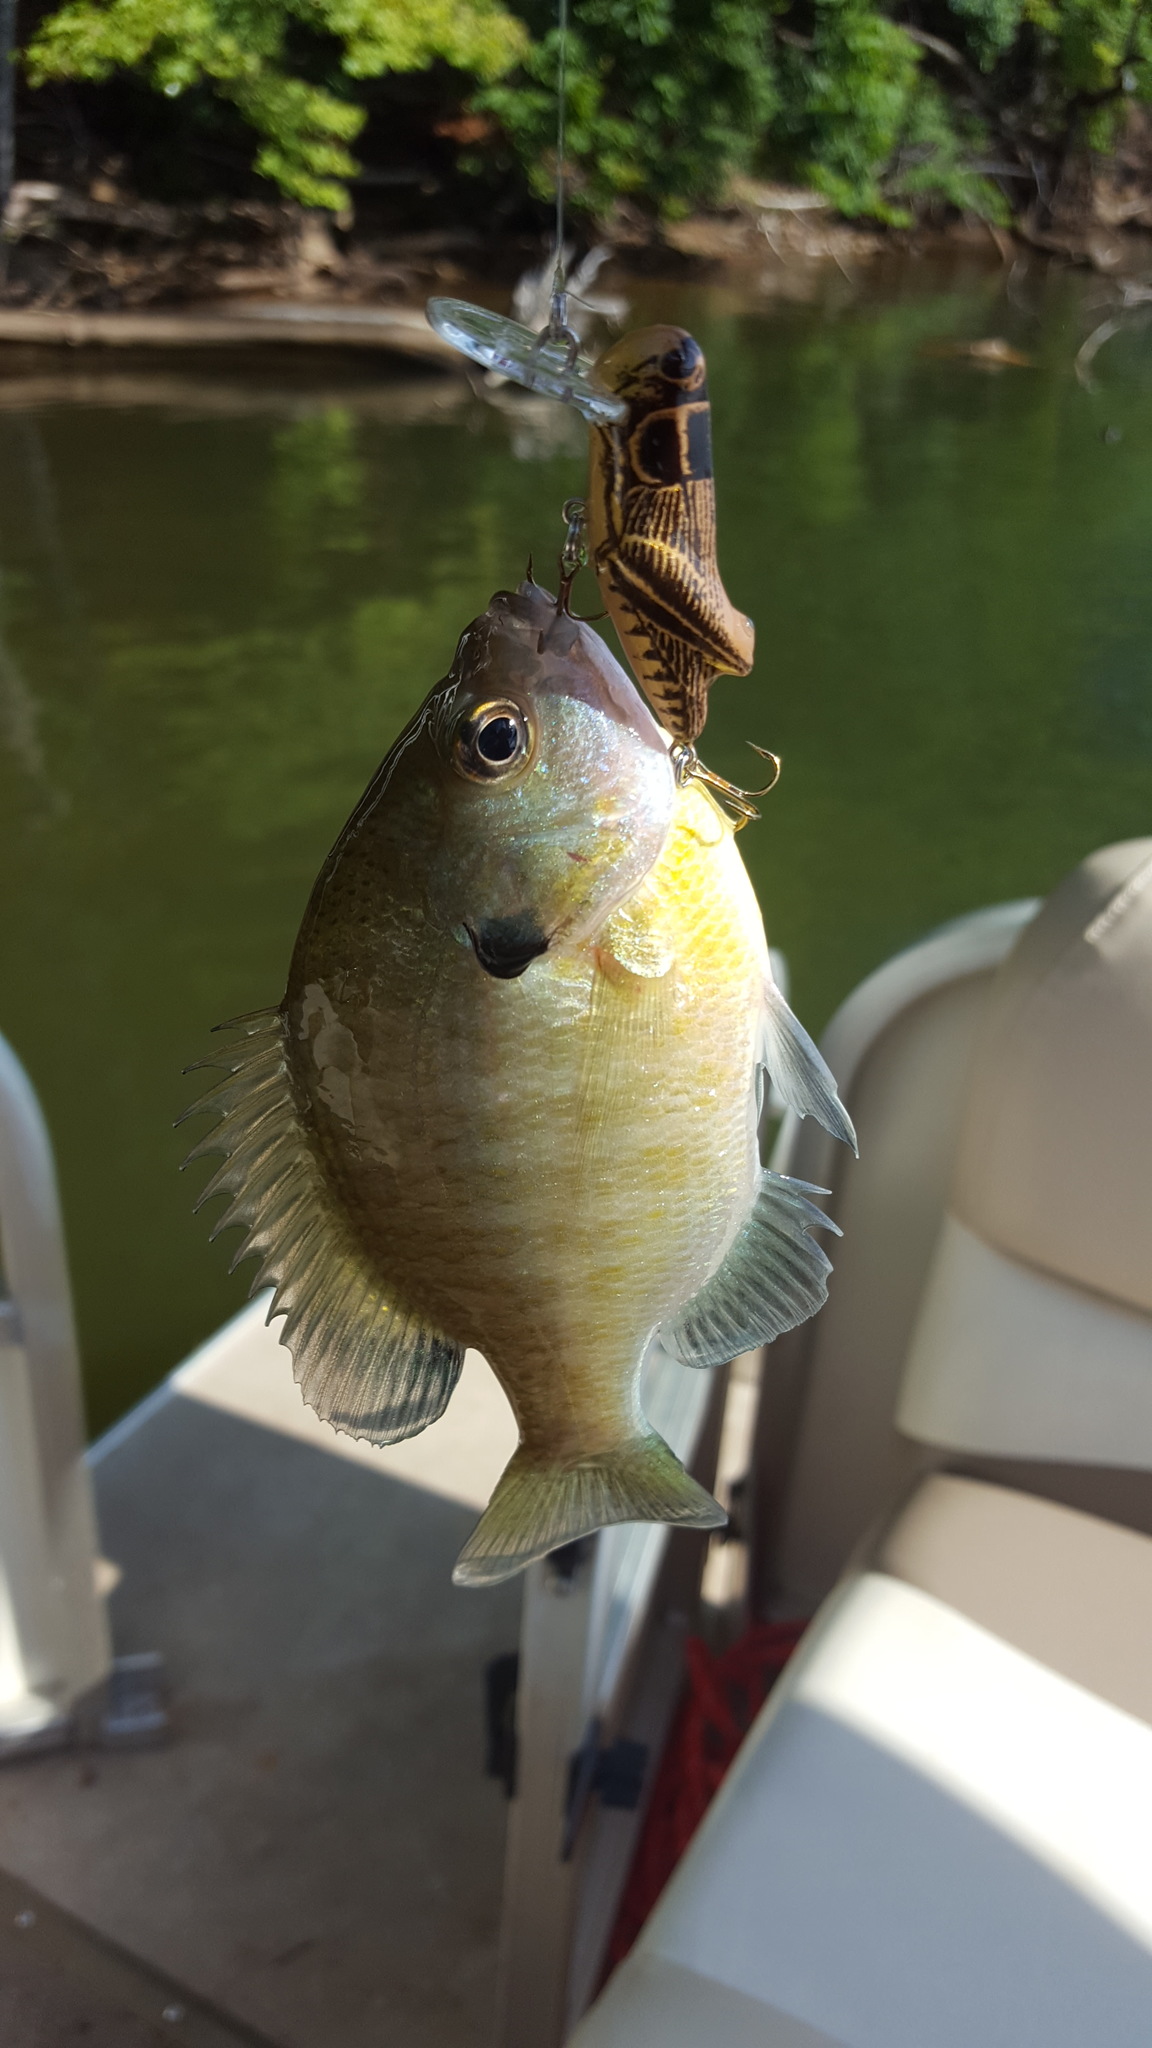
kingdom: Animalia
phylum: Chordata
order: Perciformes
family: Centrarchidae
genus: Lepomis
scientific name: Lepomis macrochirus
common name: Bluegill
